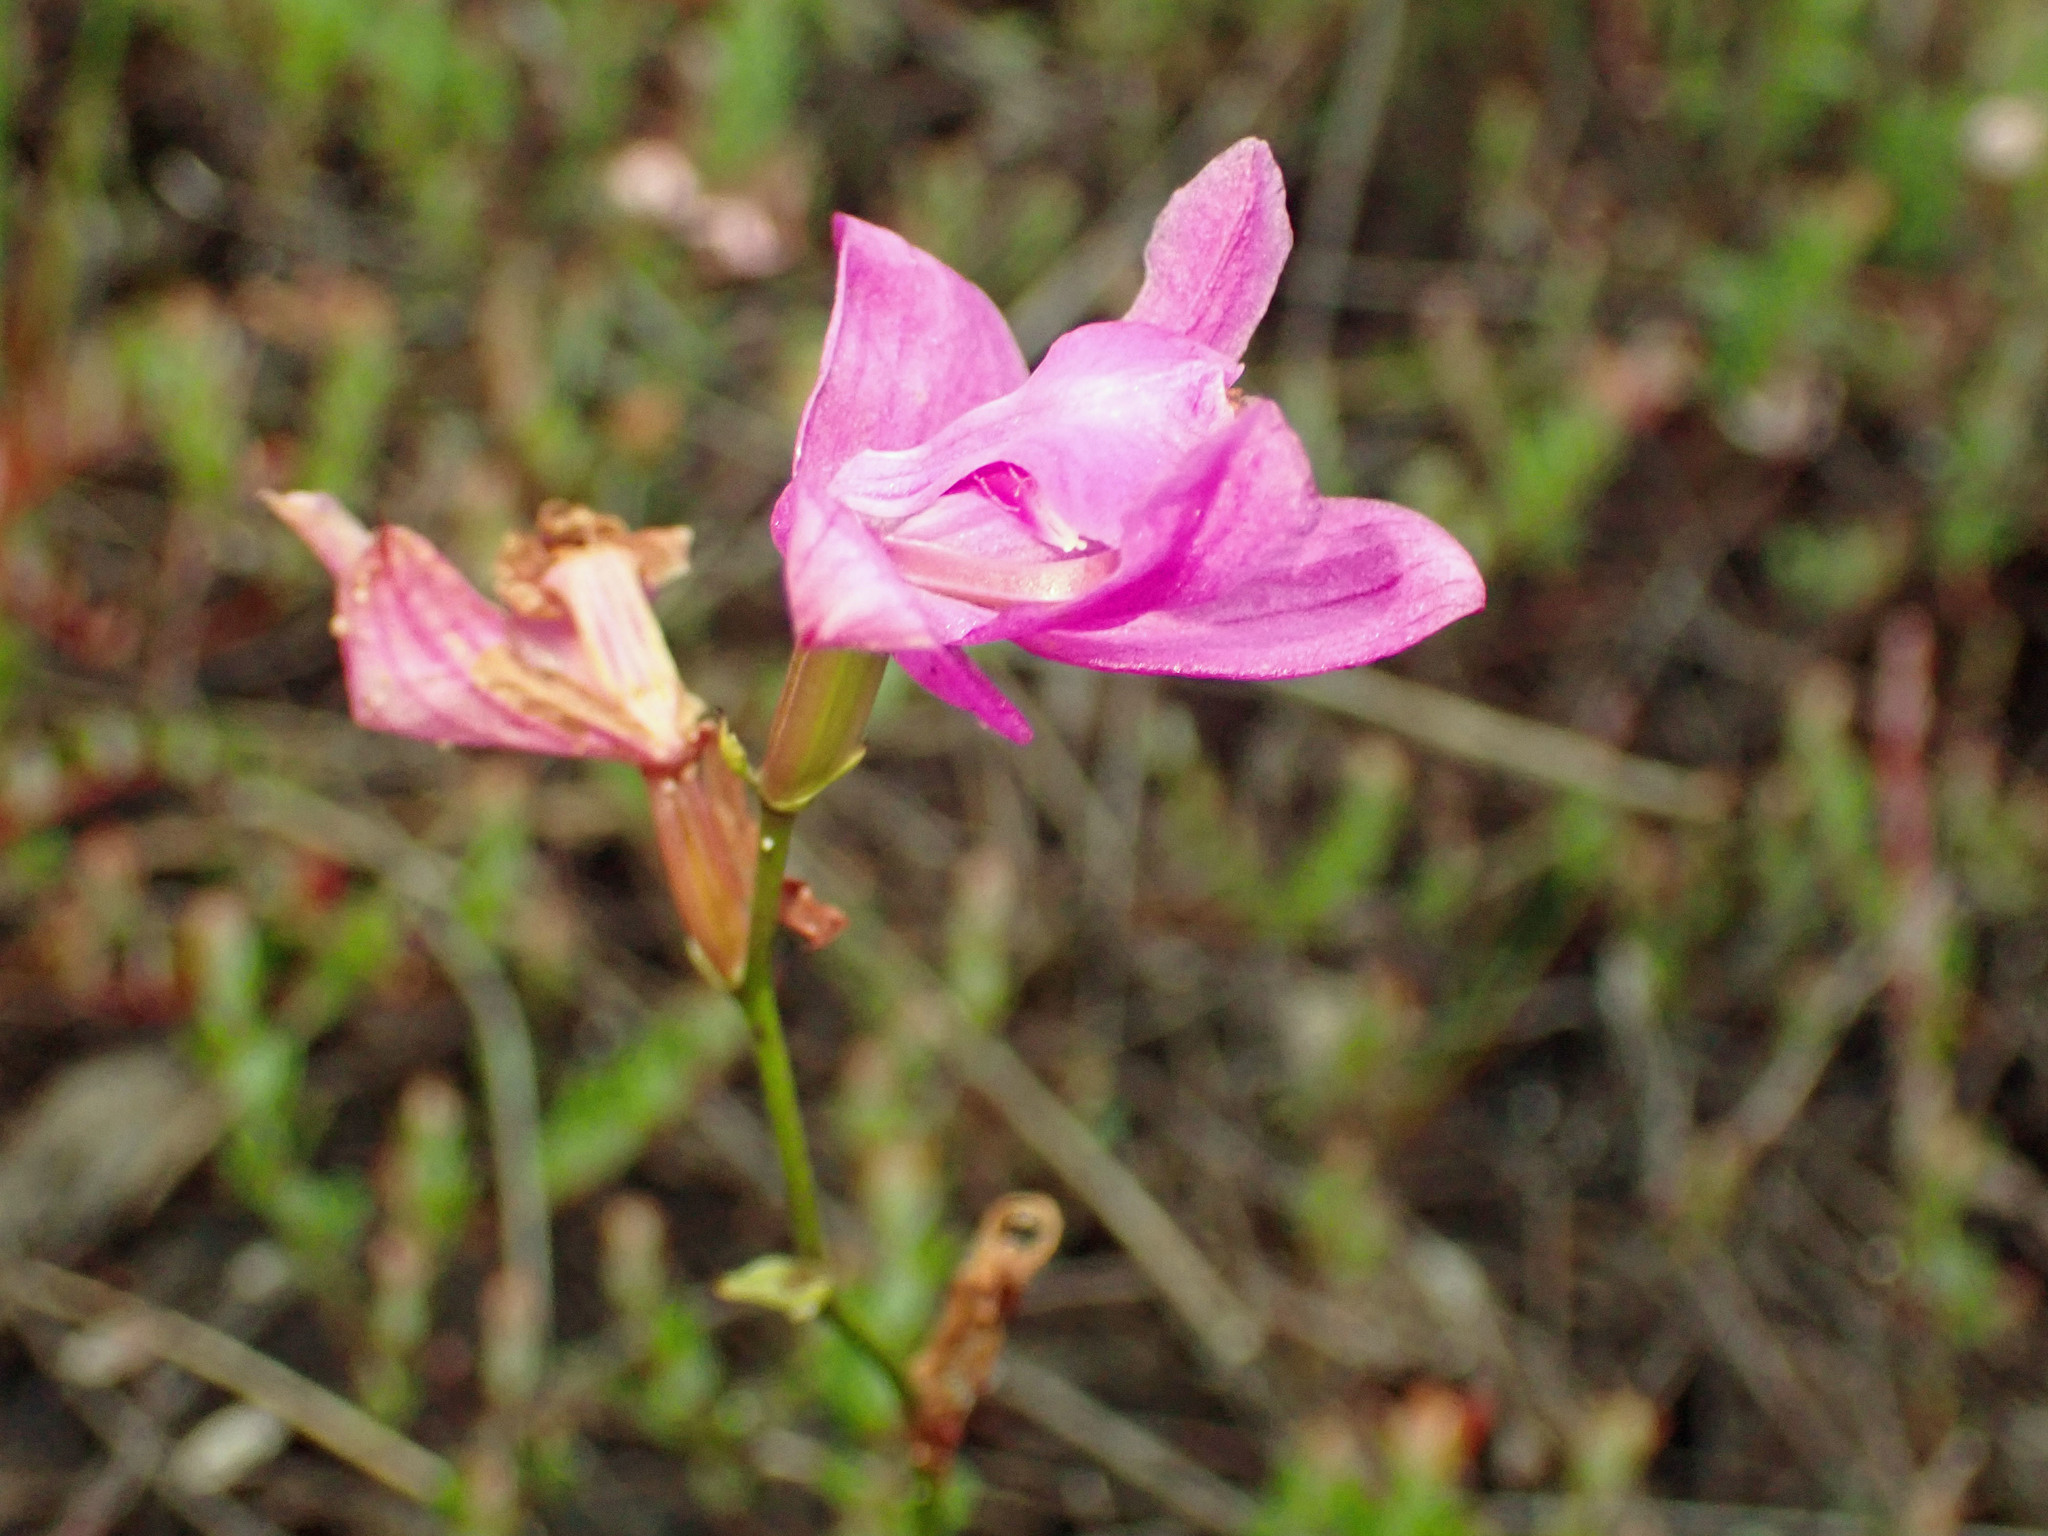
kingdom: Plantae
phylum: Tracheophyta
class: Liliopsida
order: Asparagales
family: Orchidaceae
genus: Calopogon
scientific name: Calopogon tuberosus
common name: Grass-pink
